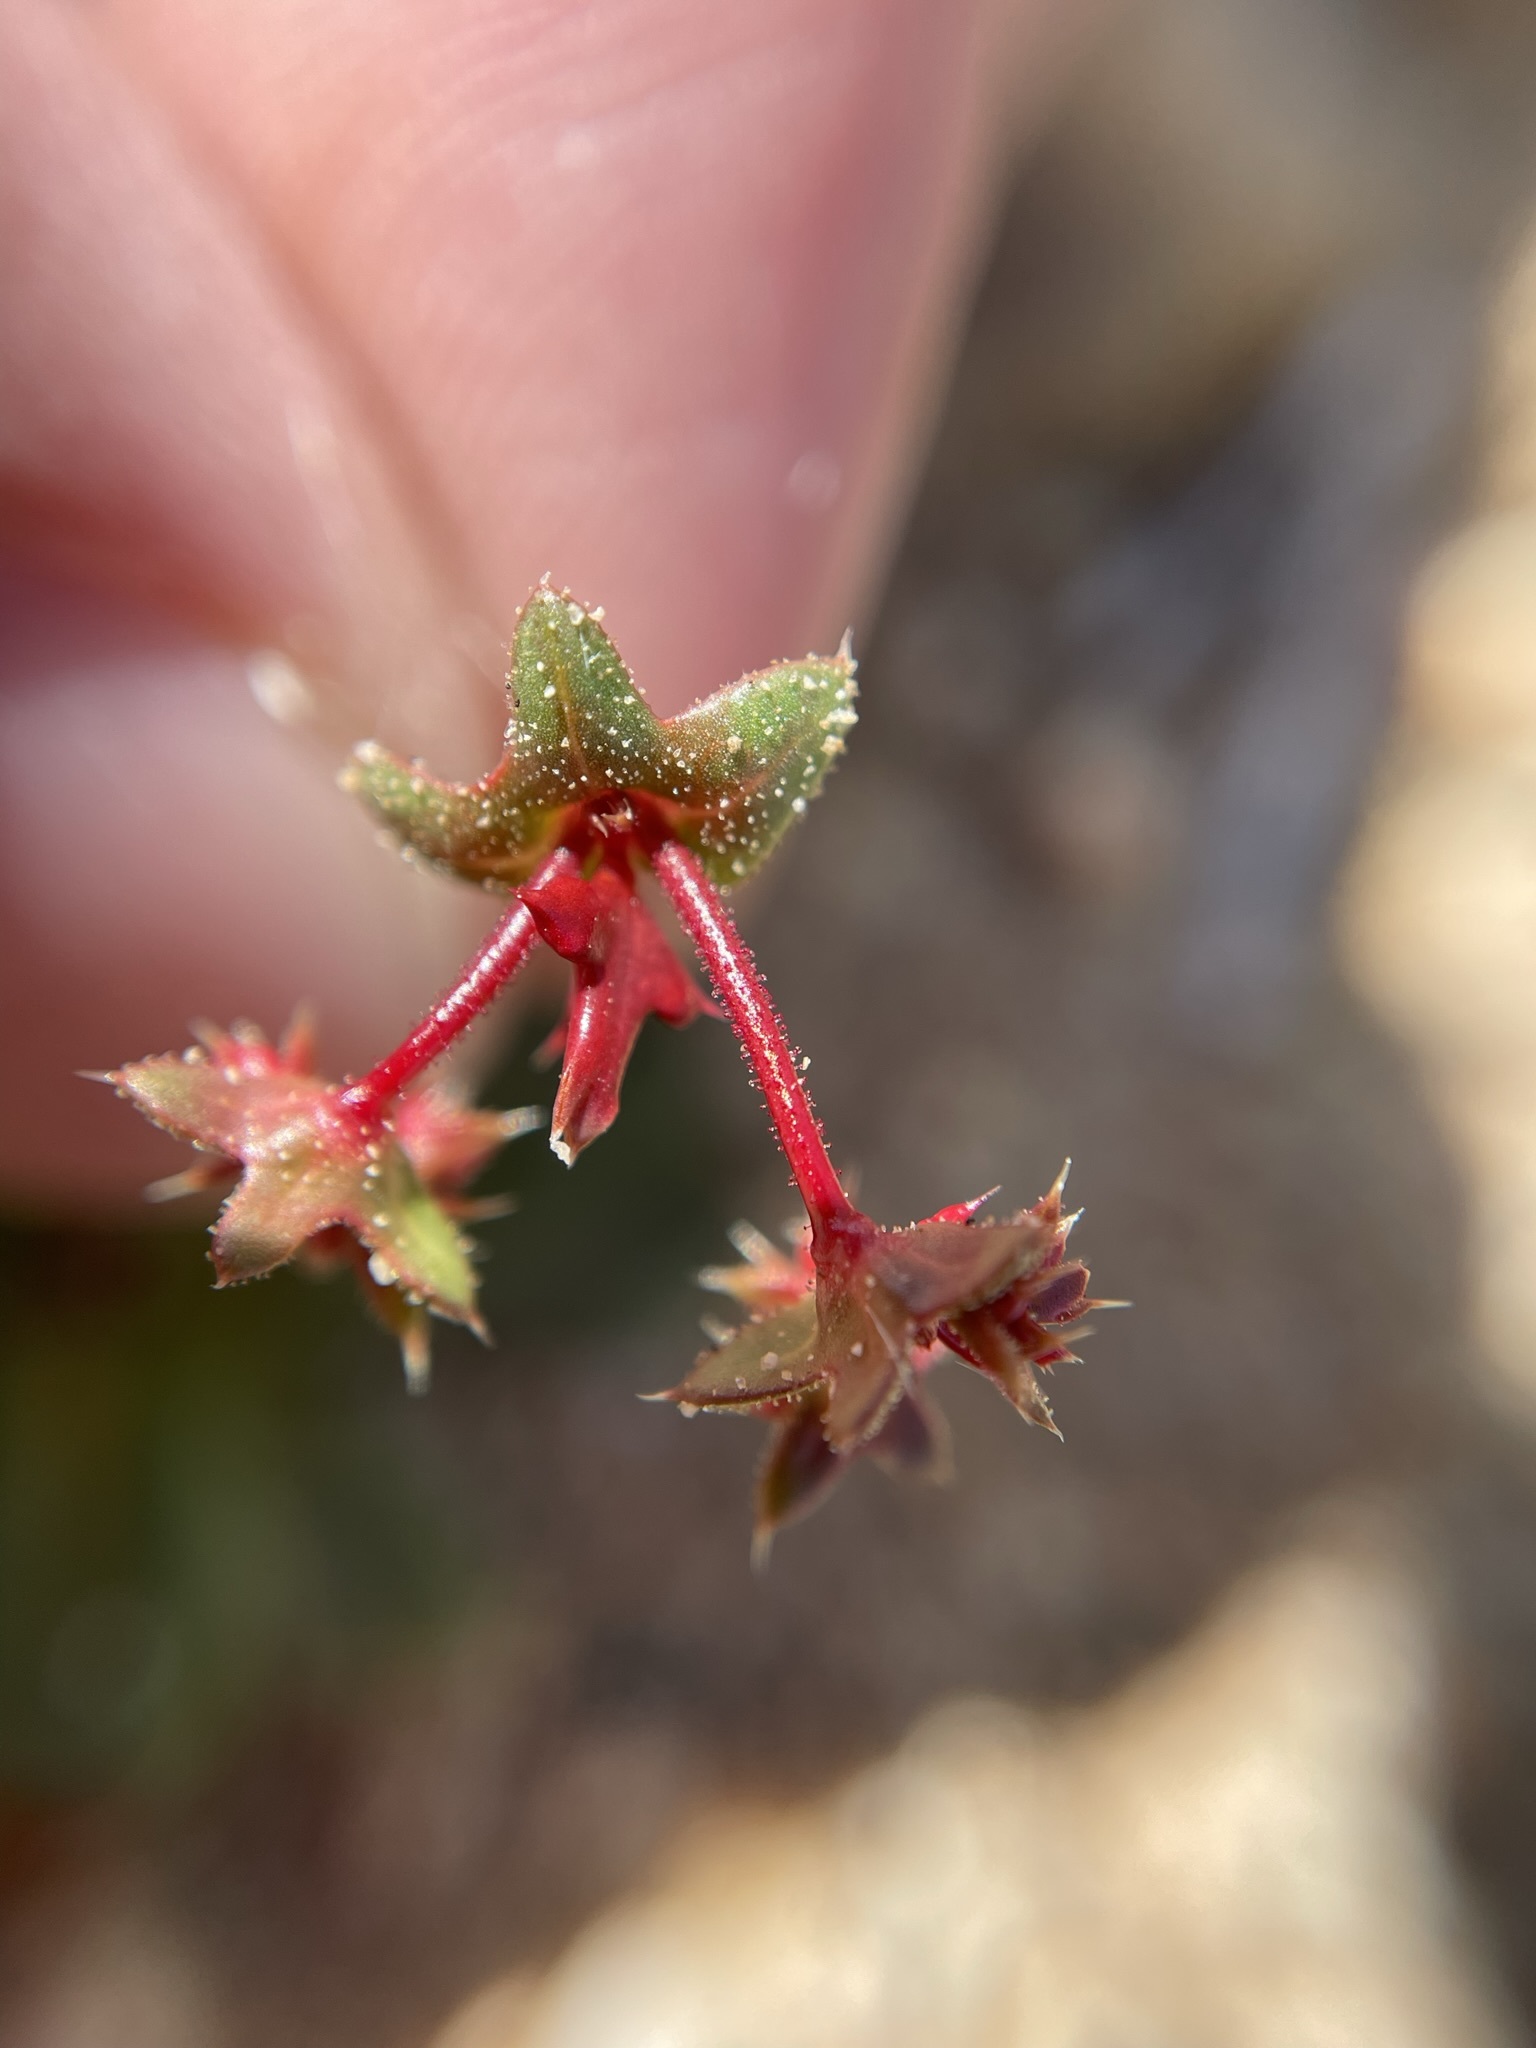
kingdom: Plantae
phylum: Tracheophyta
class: Magnoliopsida
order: Caryophyllales
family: Polygonaceae
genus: Centrostegia
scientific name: Centrostegia thurberi
